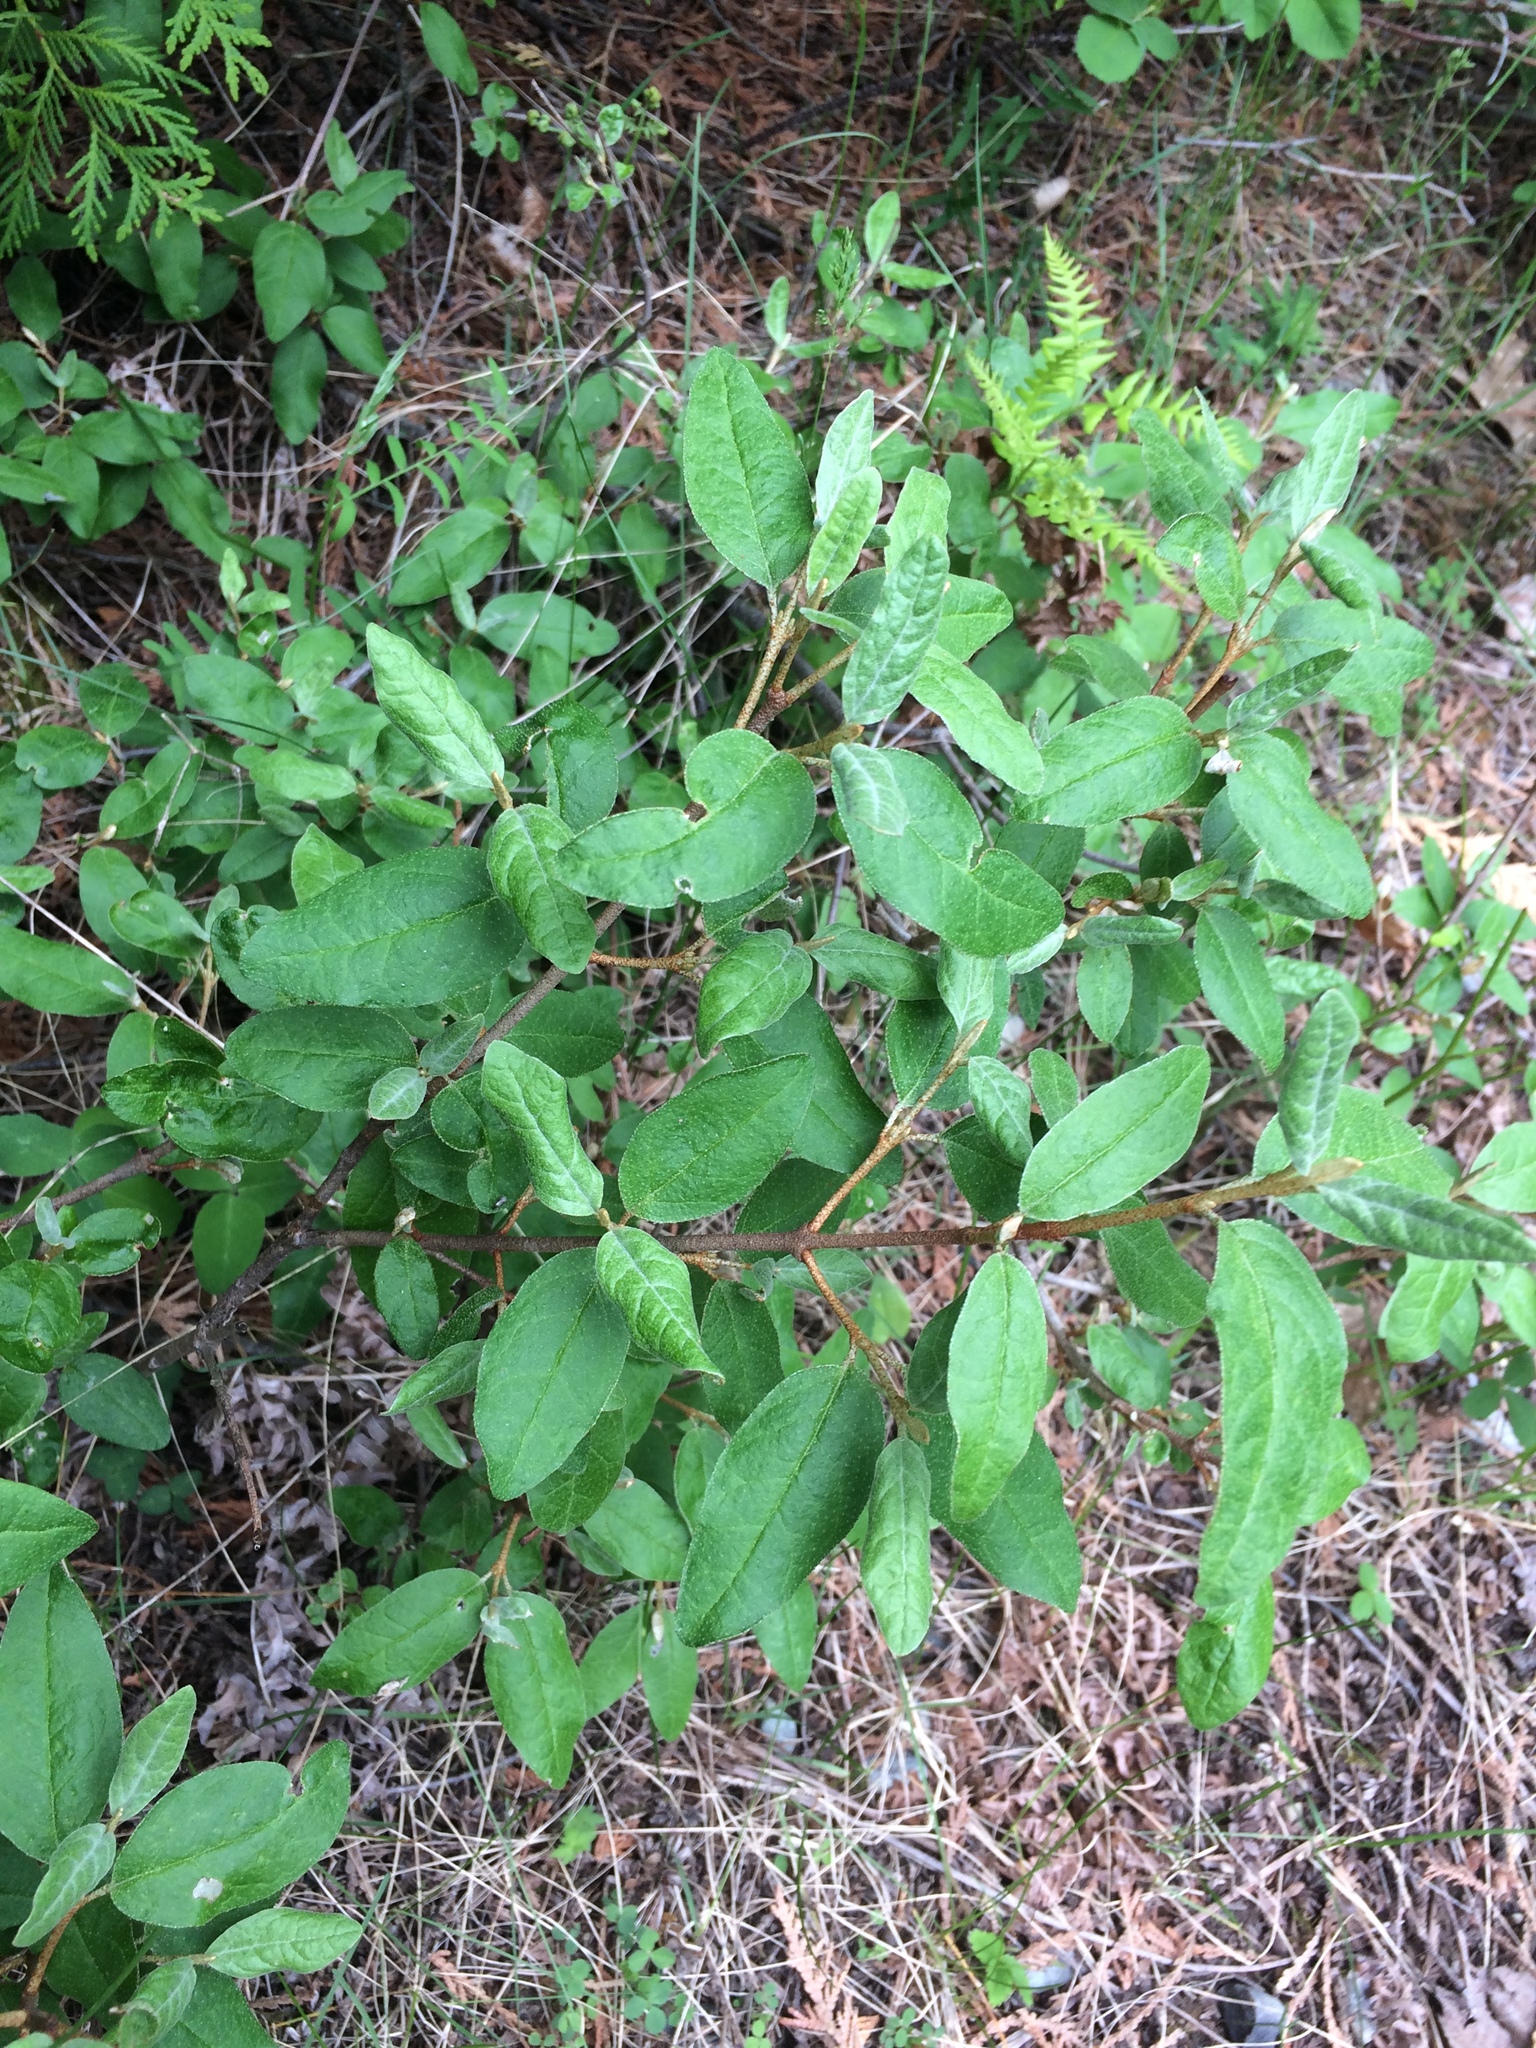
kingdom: Plantae
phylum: Tracheophyta
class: Magnoliopsida
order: Rosales
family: Elaeagnaceae
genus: Shepherdia
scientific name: Shepherdia canadensis
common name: Soapberry
